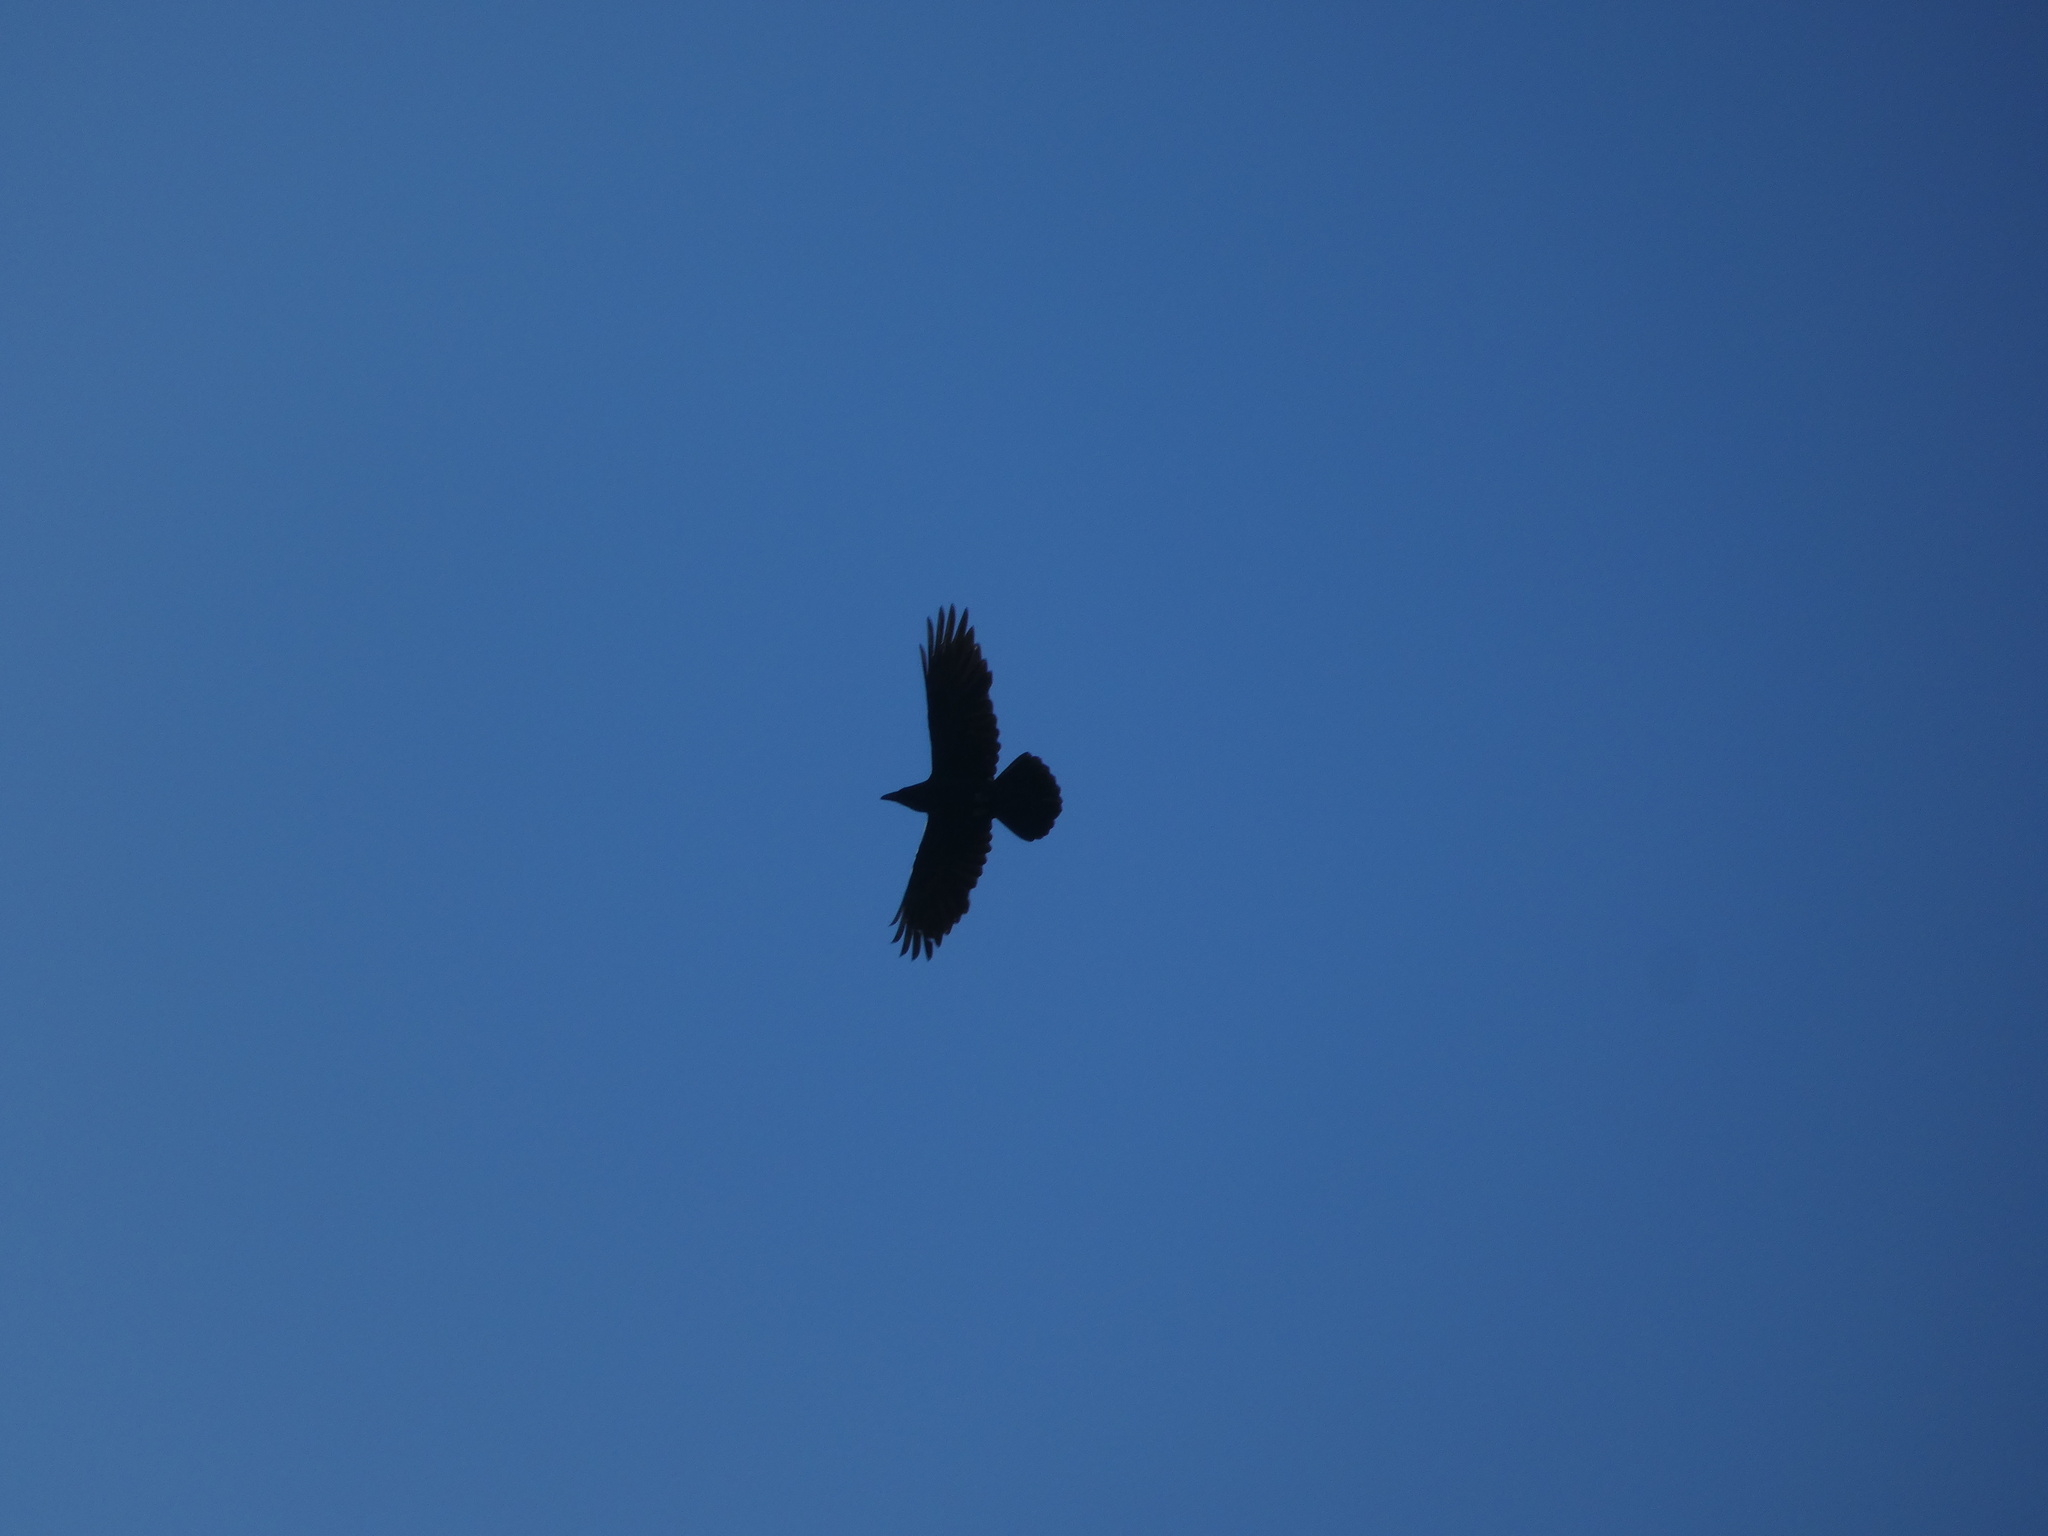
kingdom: Animalia
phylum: Chordata
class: Aves
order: Passeriformes
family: Corvidae
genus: Corvus
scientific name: Corvus corax
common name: Common raven
